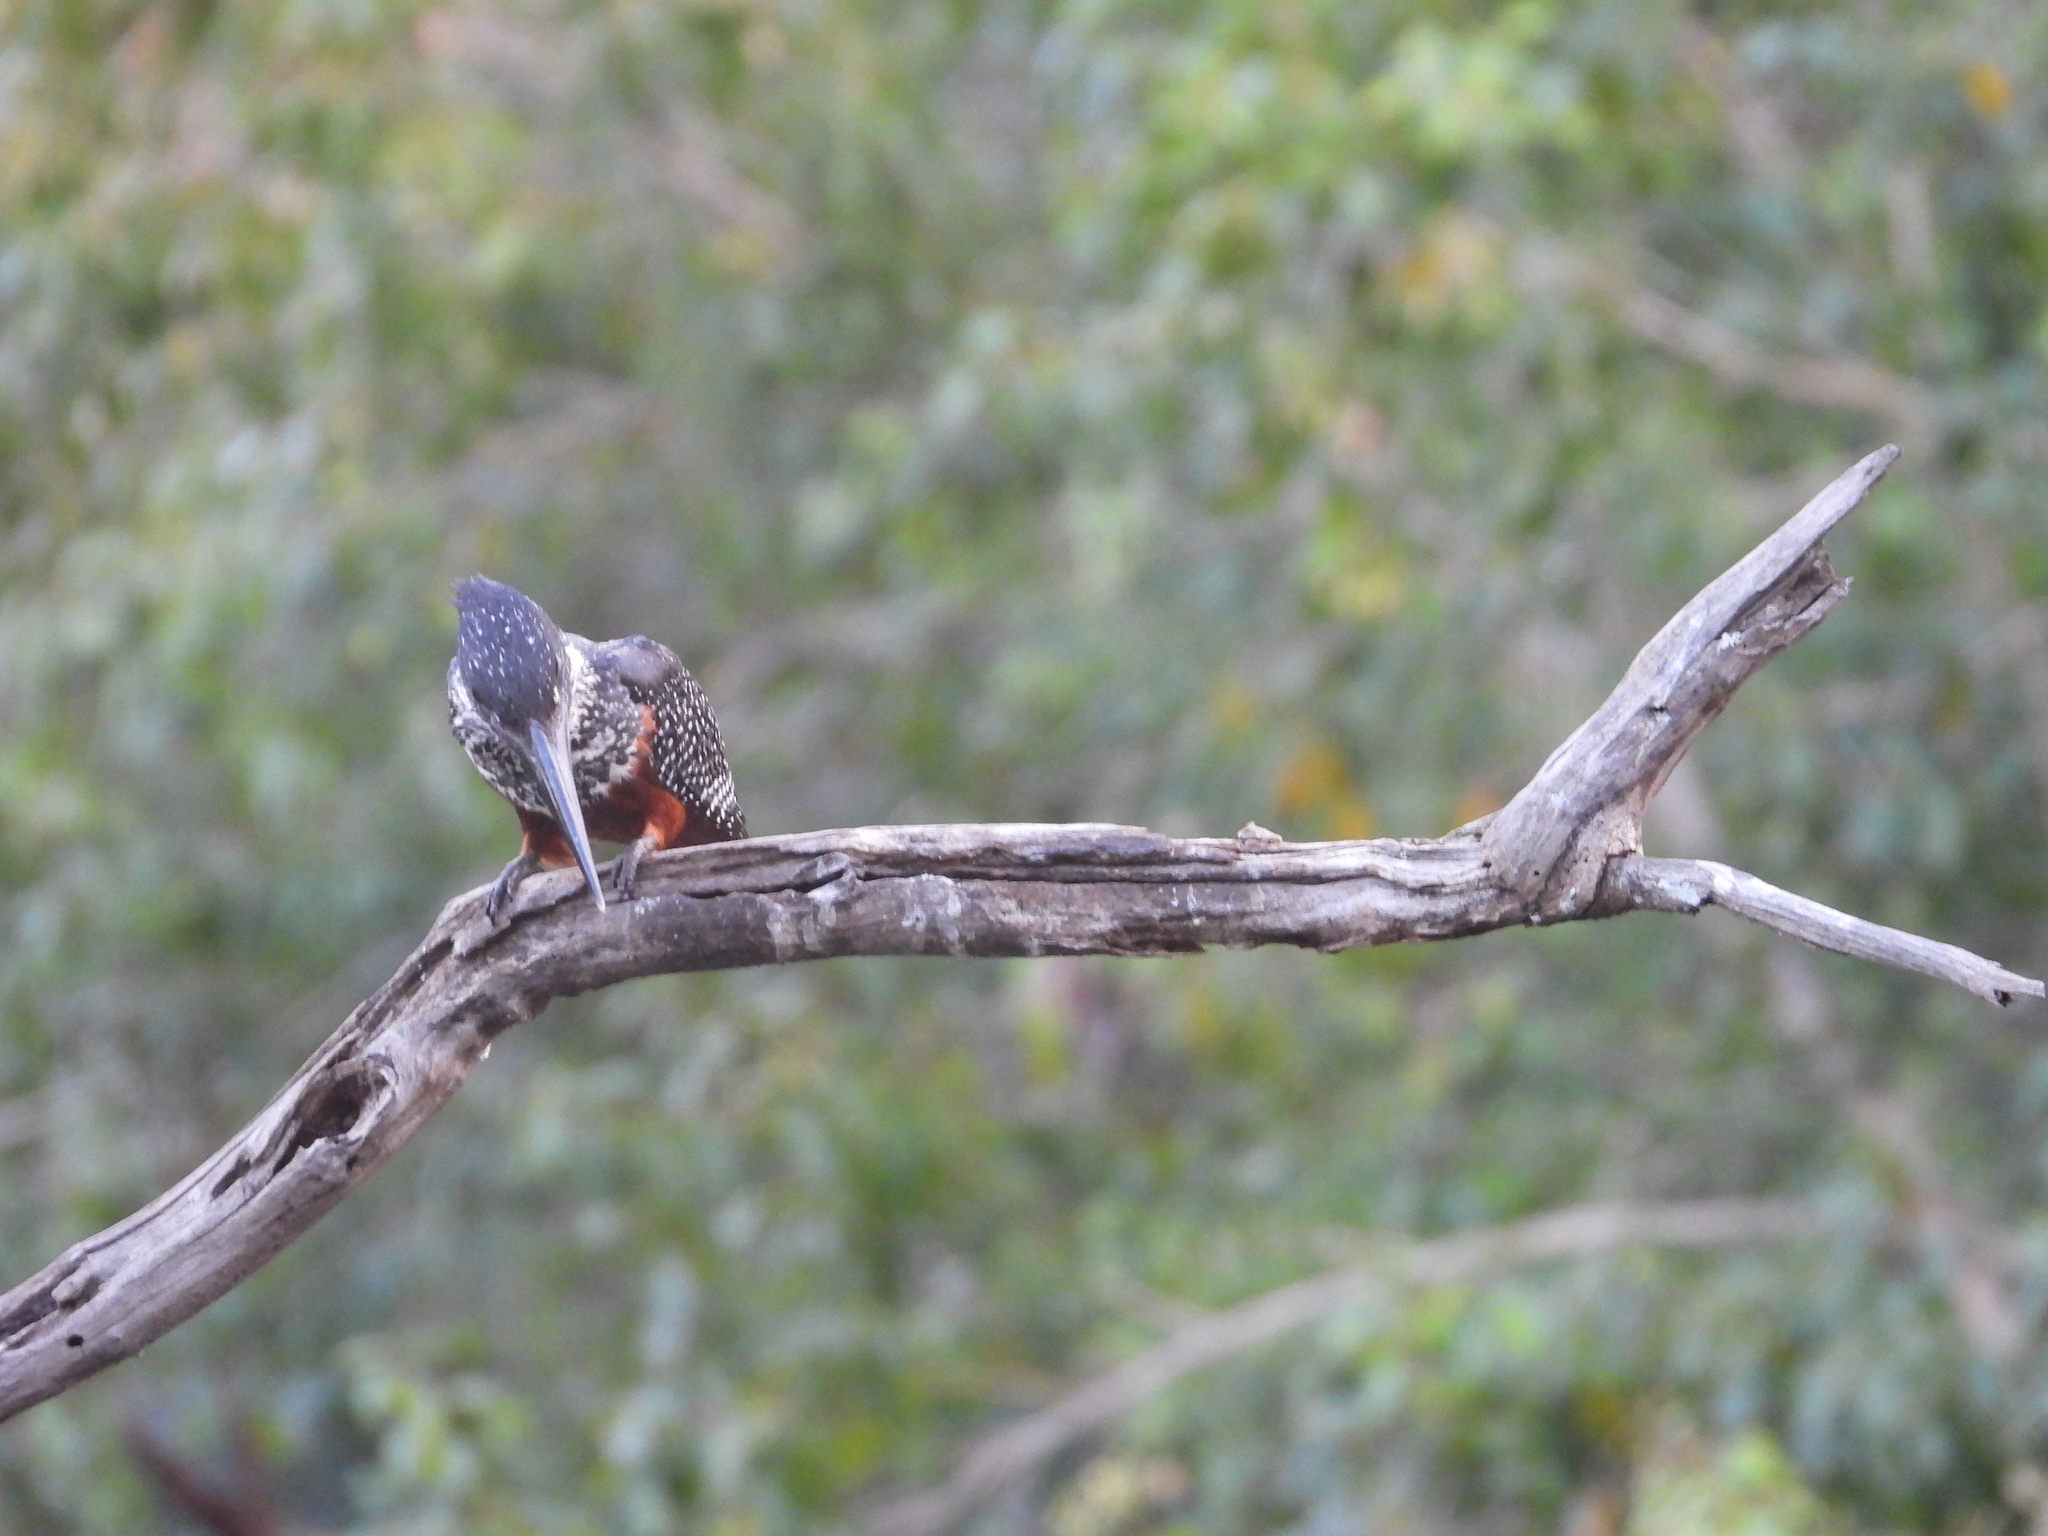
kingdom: Animalia
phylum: Chordata
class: Aves
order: Coraciiformes
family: Alcedinidae
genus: Megaceryle
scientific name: Megaceryle maxima
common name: Giant kingfisher
